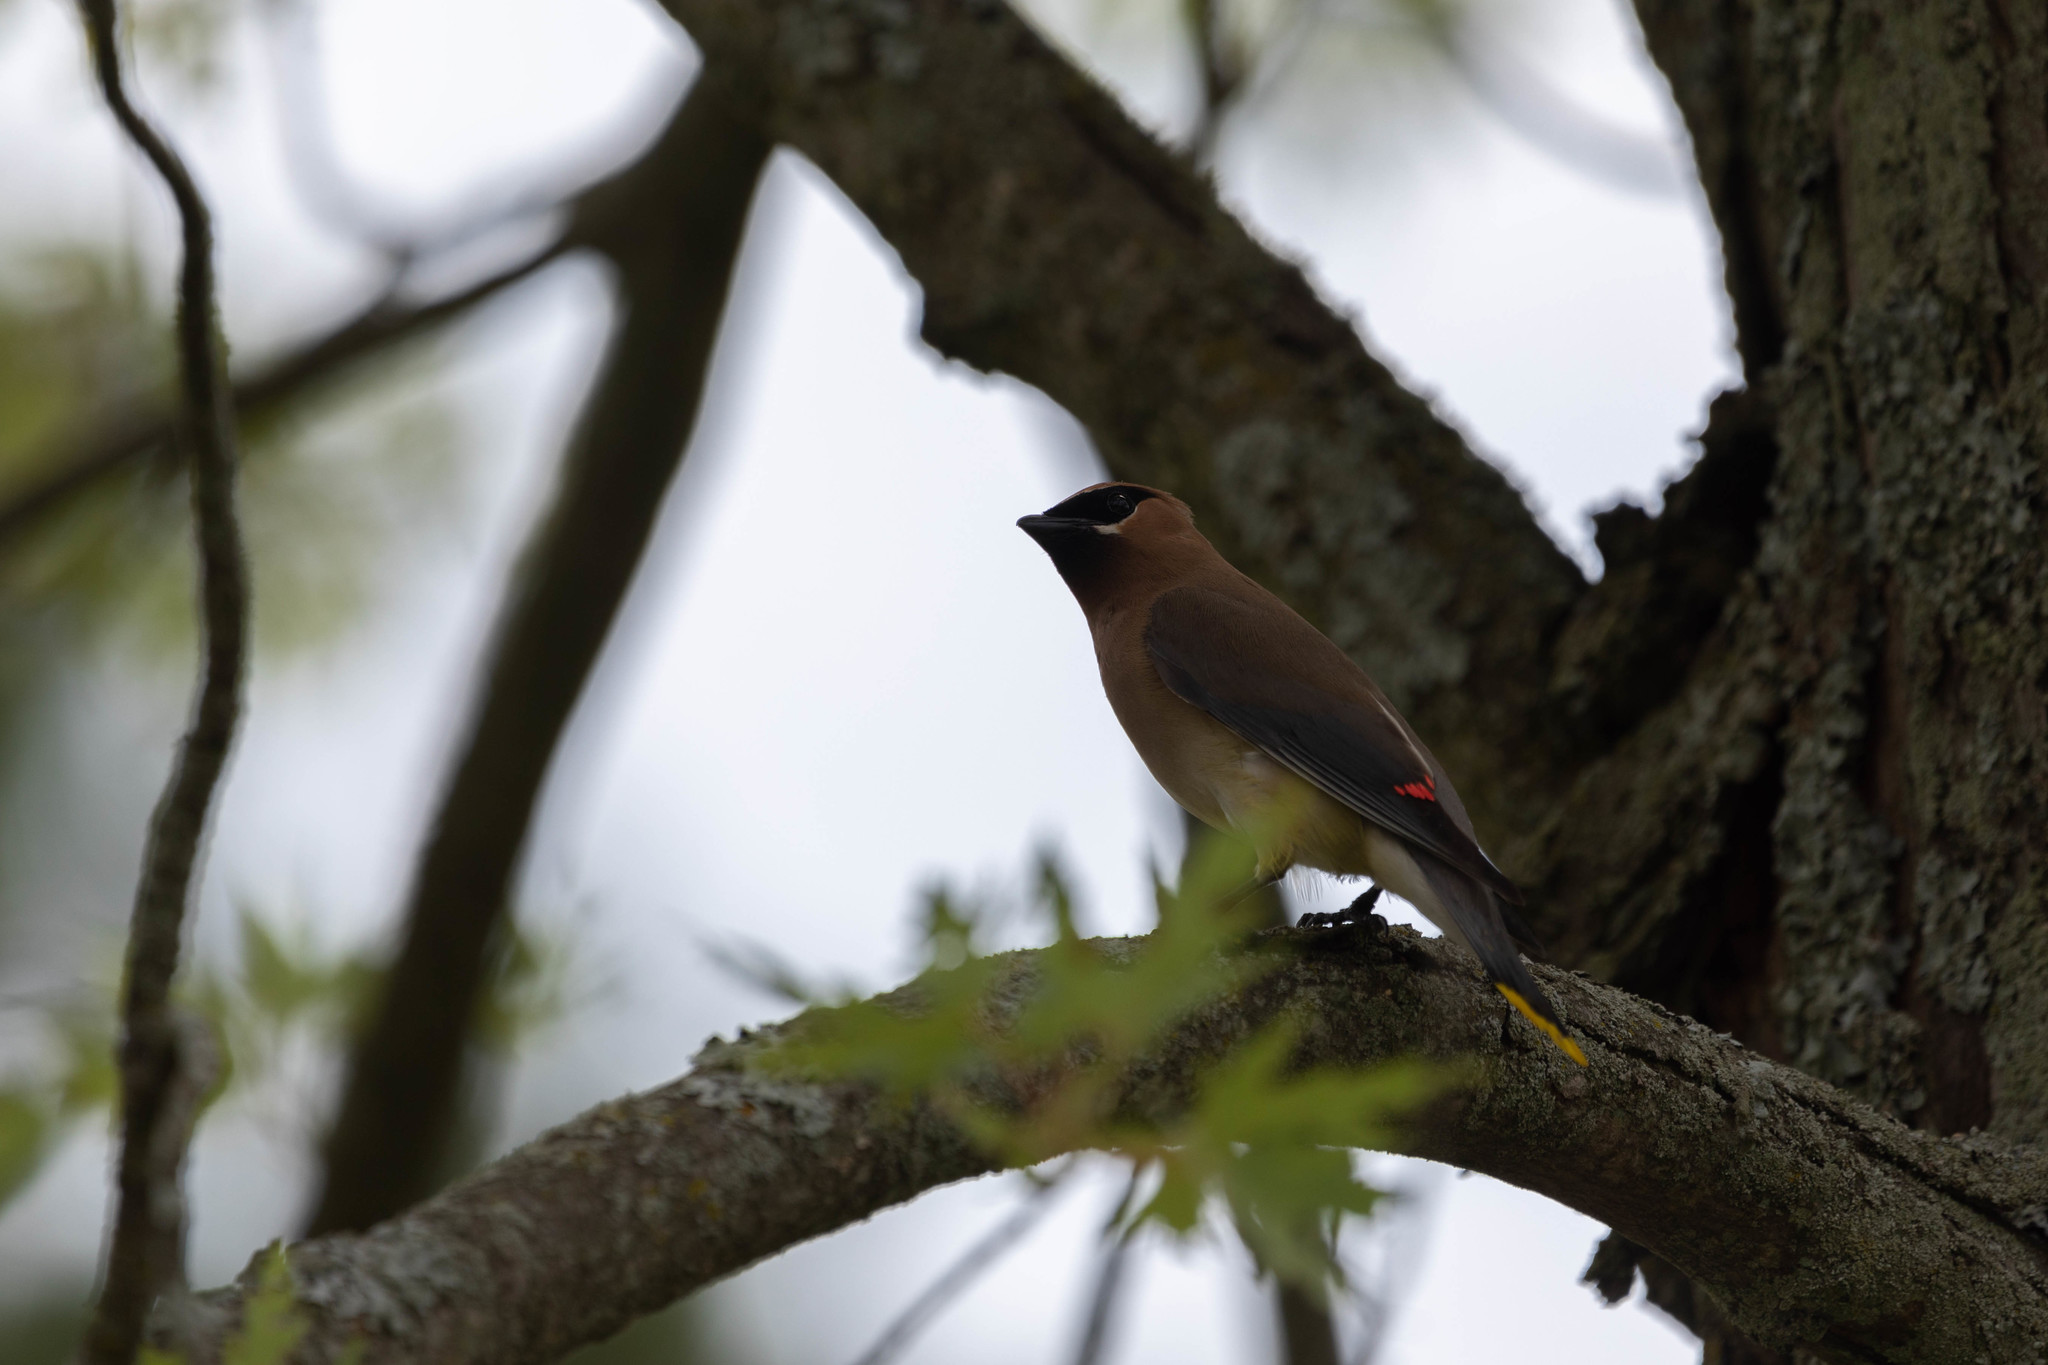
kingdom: Animalia
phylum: Chordata
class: Aves
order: Passeriformes
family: Bombycillidae
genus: Bombycilla
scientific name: Bombycilla cedrorum
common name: Cedar waxwing
